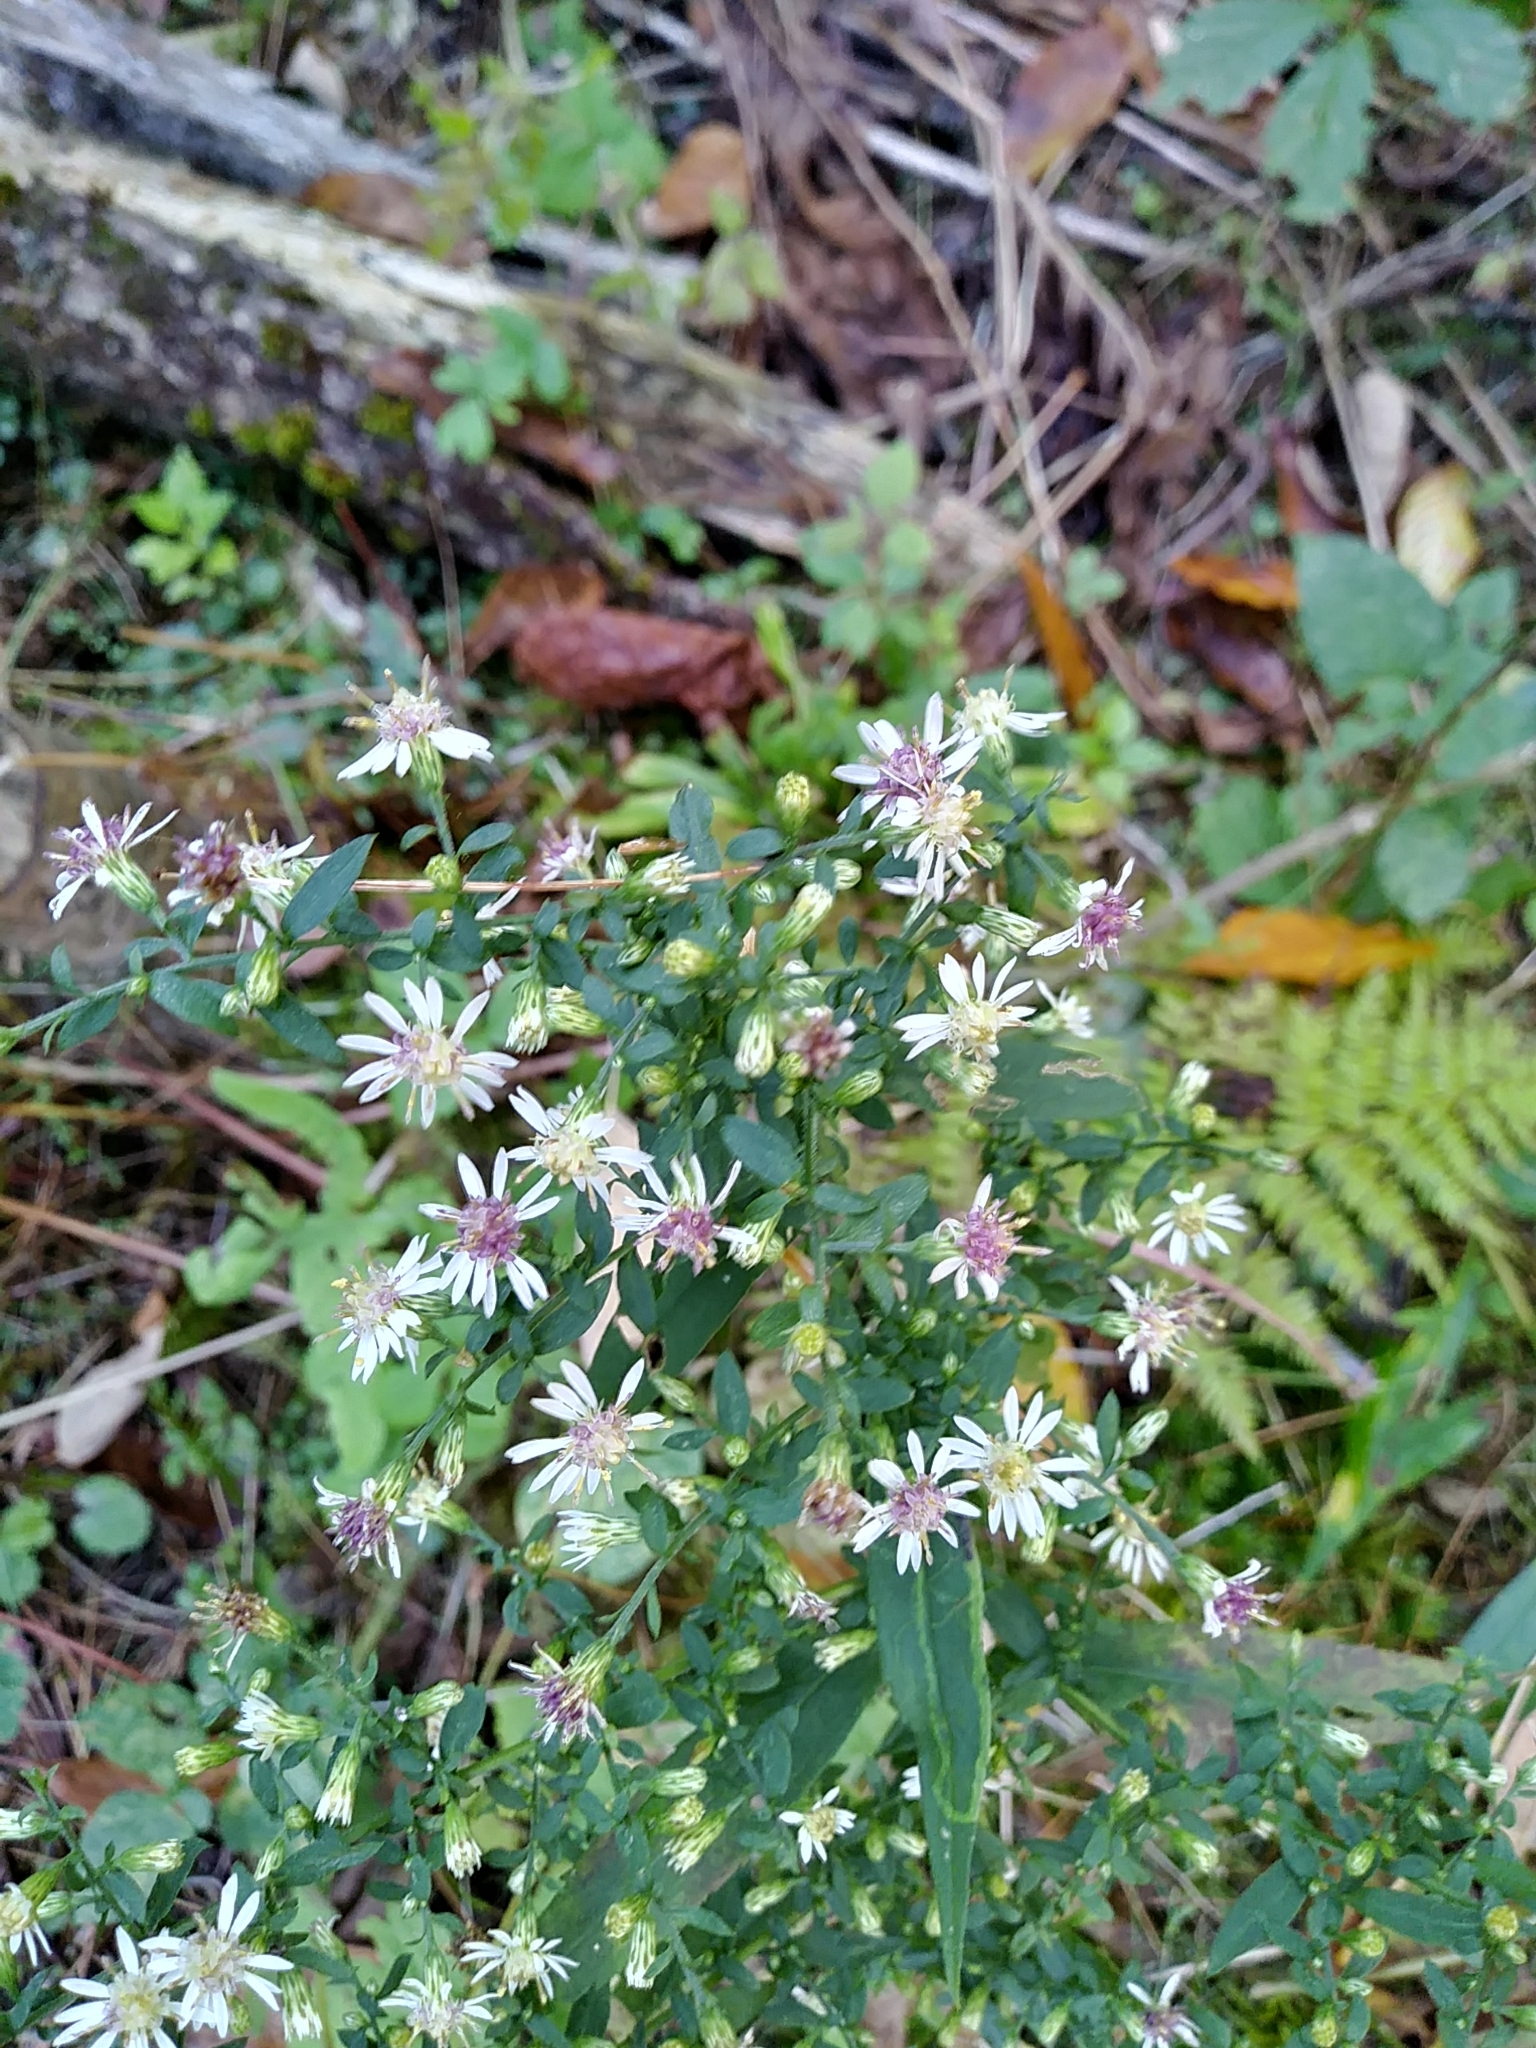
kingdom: Plantae
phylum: Tracheophyta
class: Magnoliopsida
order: Asterales
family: Asteraceae
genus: Symphyotrichum
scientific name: Symphyotrichum lateriflorum
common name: Calico aster
